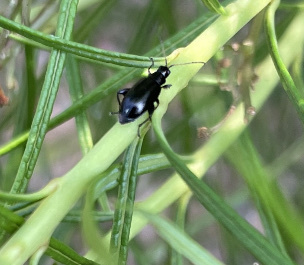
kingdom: Animalia
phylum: Arthropoda
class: Insecta
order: Coleoptera
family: Chrysomelidae
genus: Systena
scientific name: Systena hudsonias
